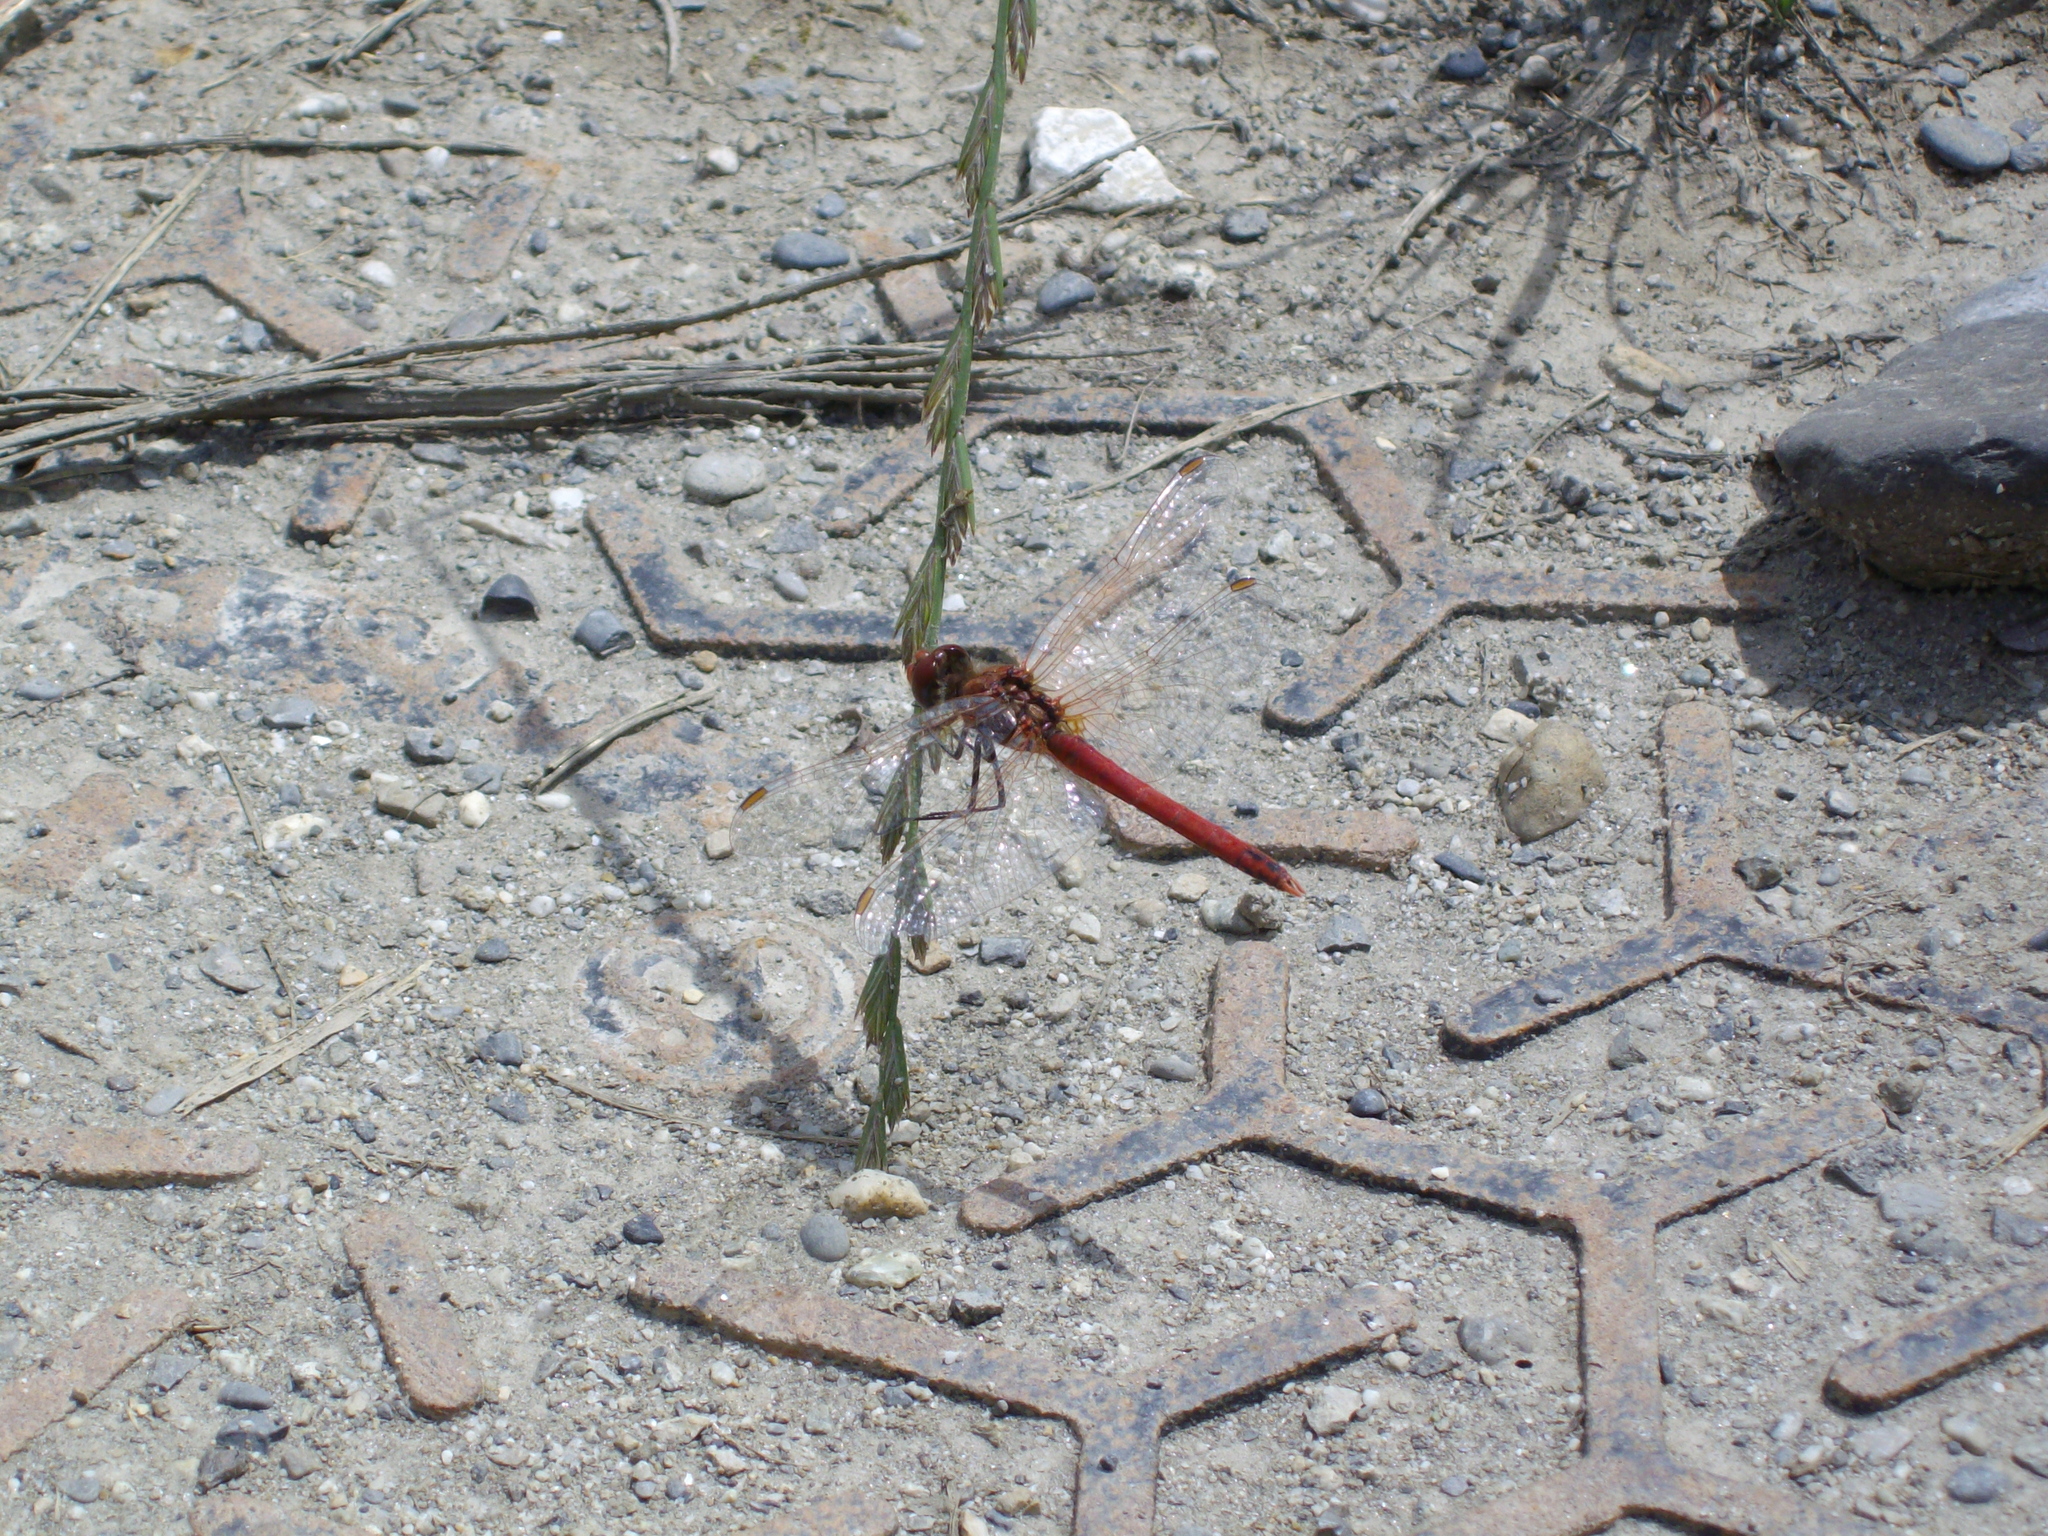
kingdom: Animalia
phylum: Arthropoda
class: Insecta
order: Odonata
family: Libellulidae
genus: Sympetrum
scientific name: Sympetrum fonscolombii
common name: Red-veined darter
